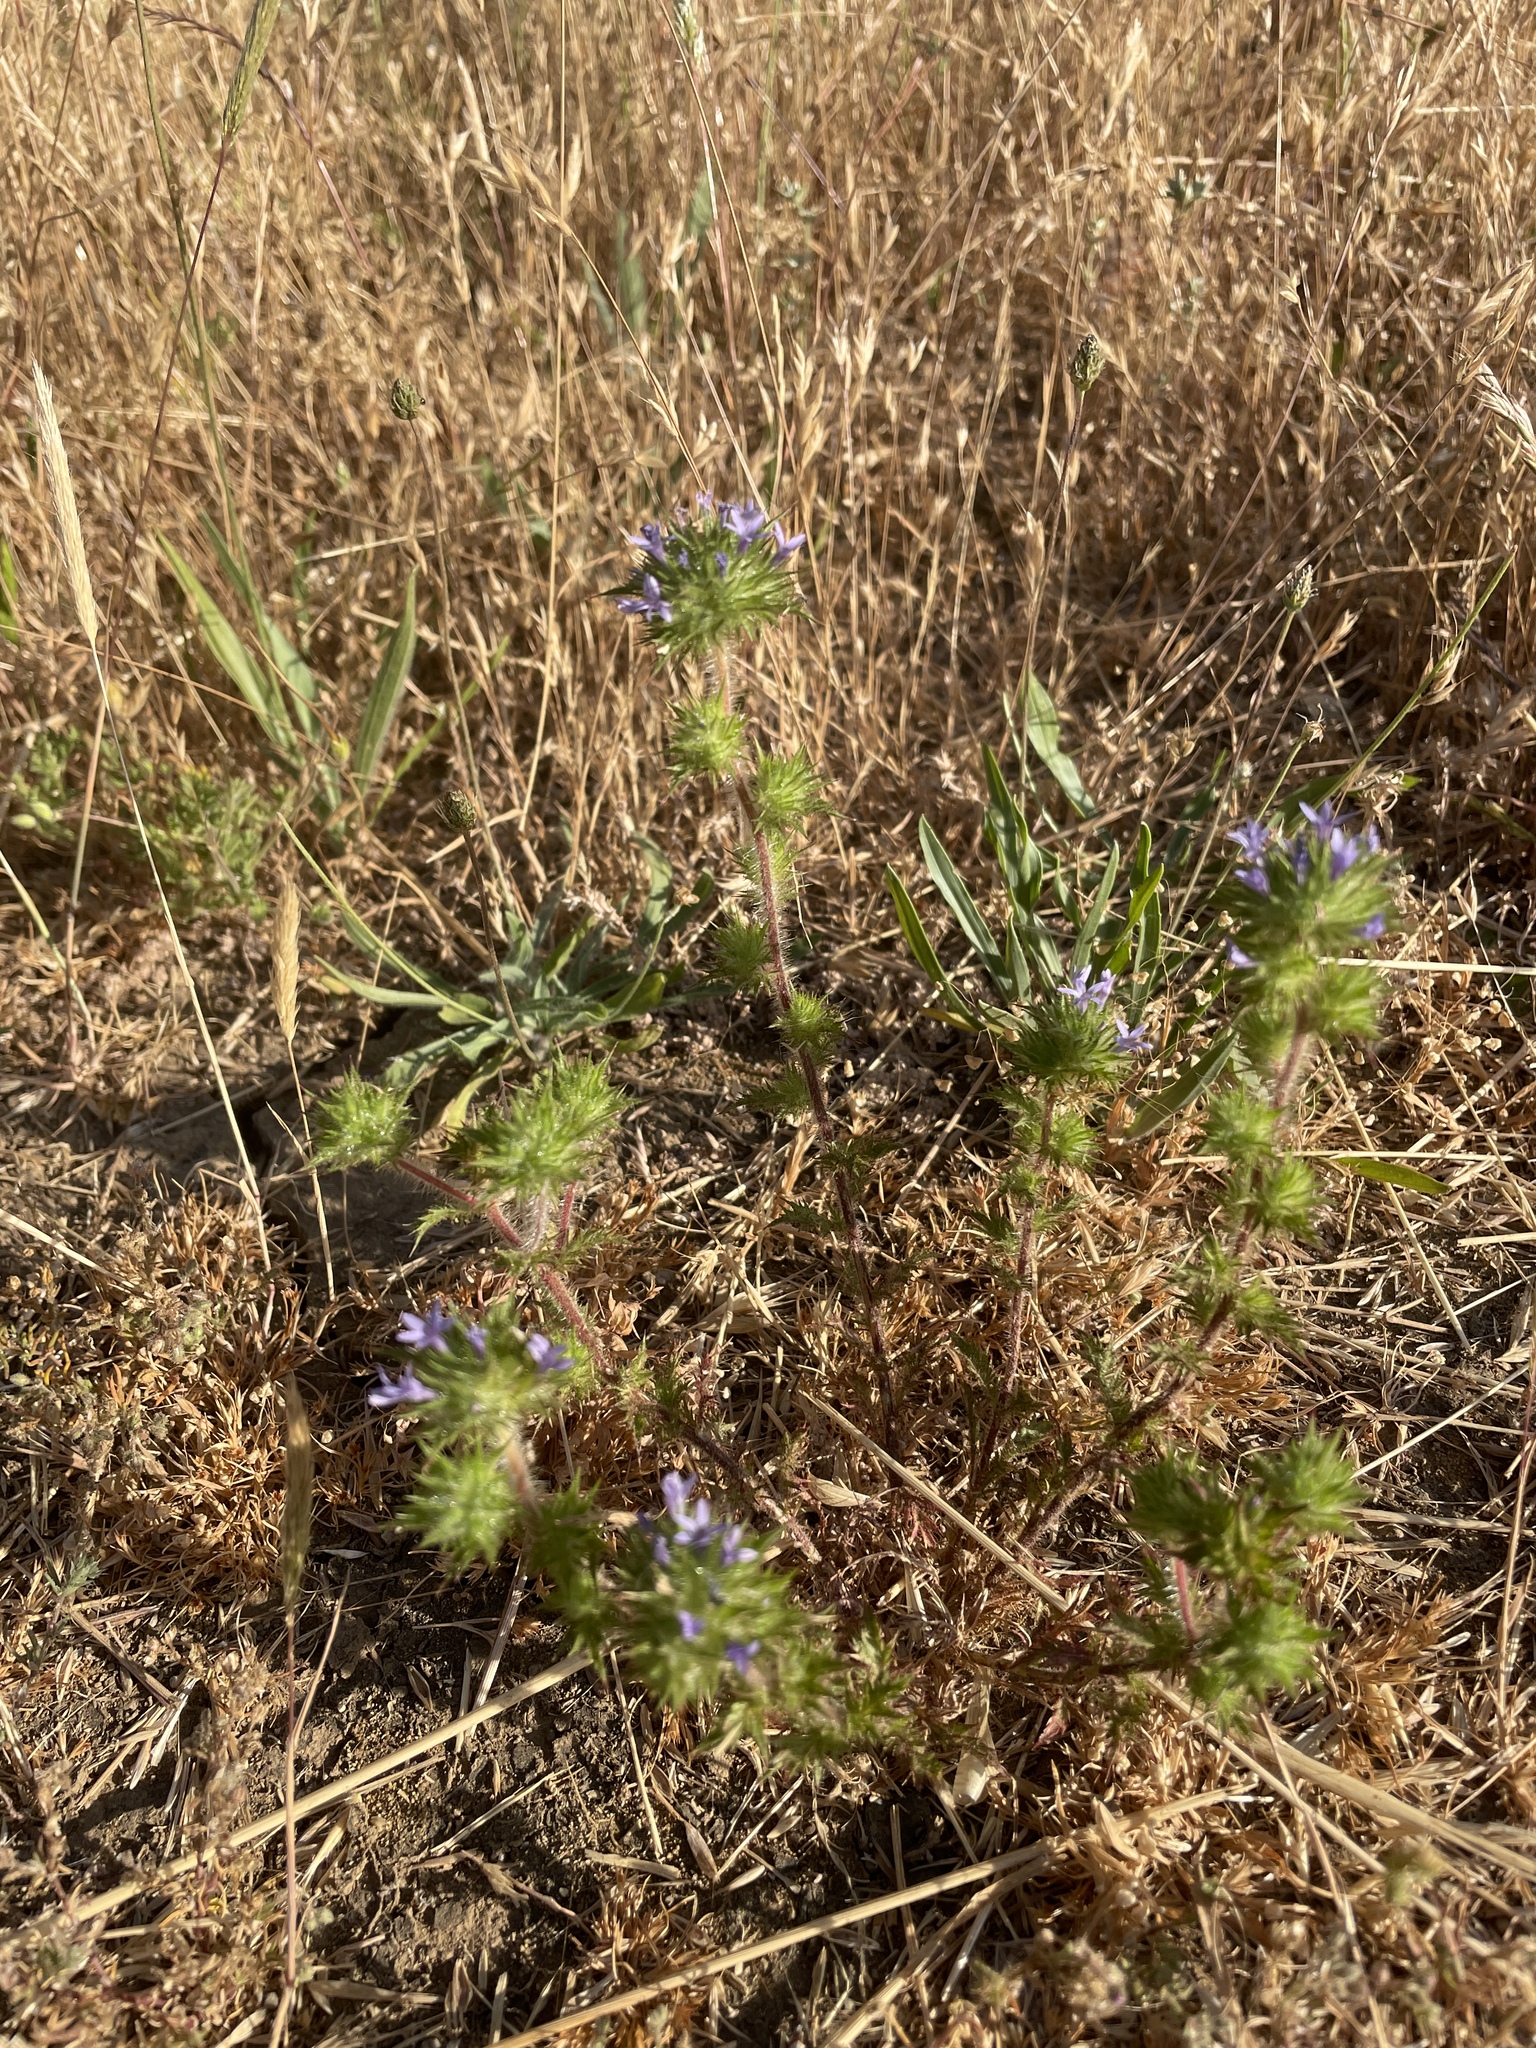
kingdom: Plantae
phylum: Tracheophyta
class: Magnoliopsida
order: Ericales
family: Polemoniaceae
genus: Navarretia
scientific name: Navarretia squarrosa
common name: Skunkweed
